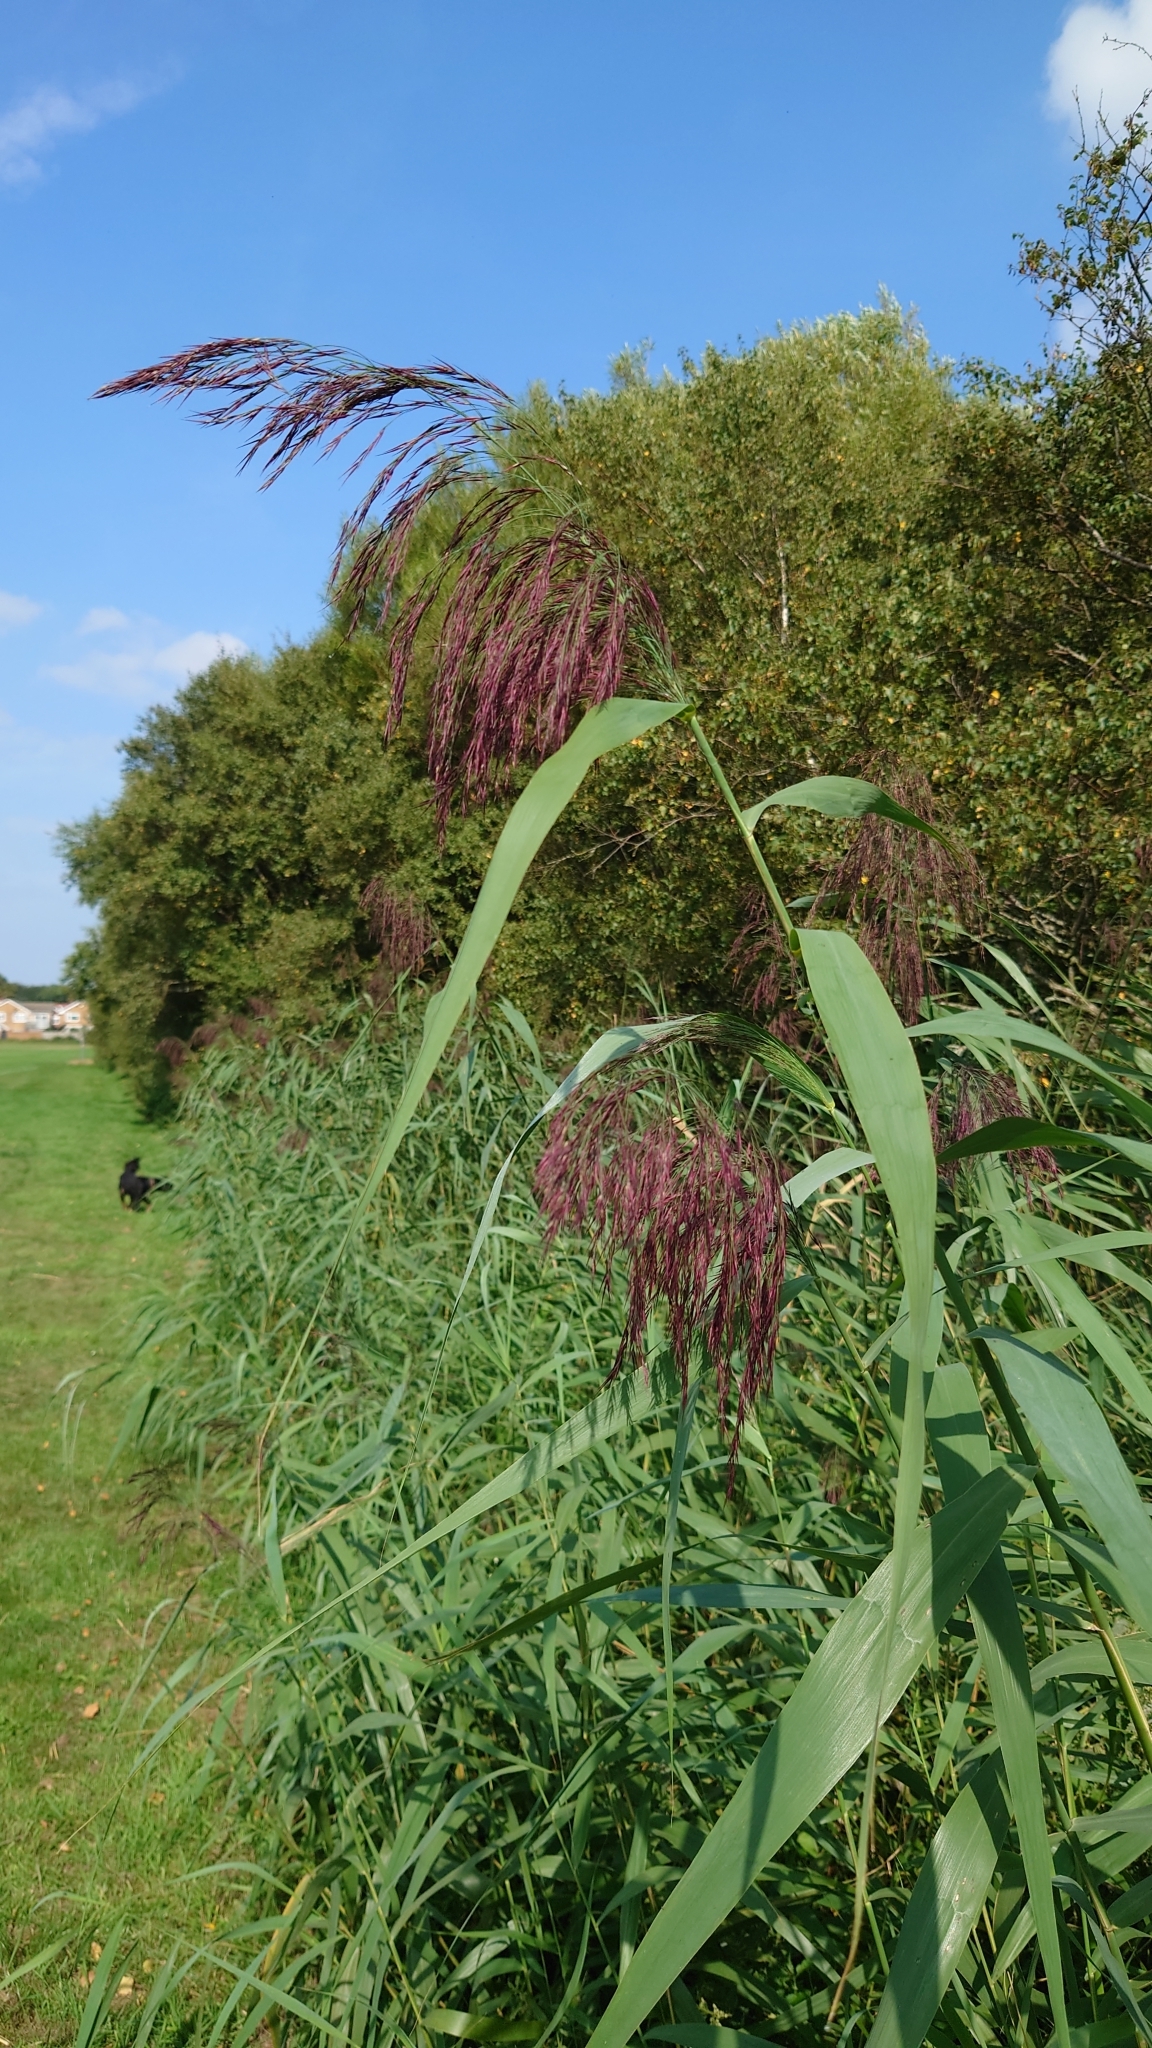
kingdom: Plantae
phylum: Tracheophyta
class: Liliopsida
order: Poales
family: Poaceae
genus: Phragmites
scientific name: Phragmites australis
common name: Common reed
